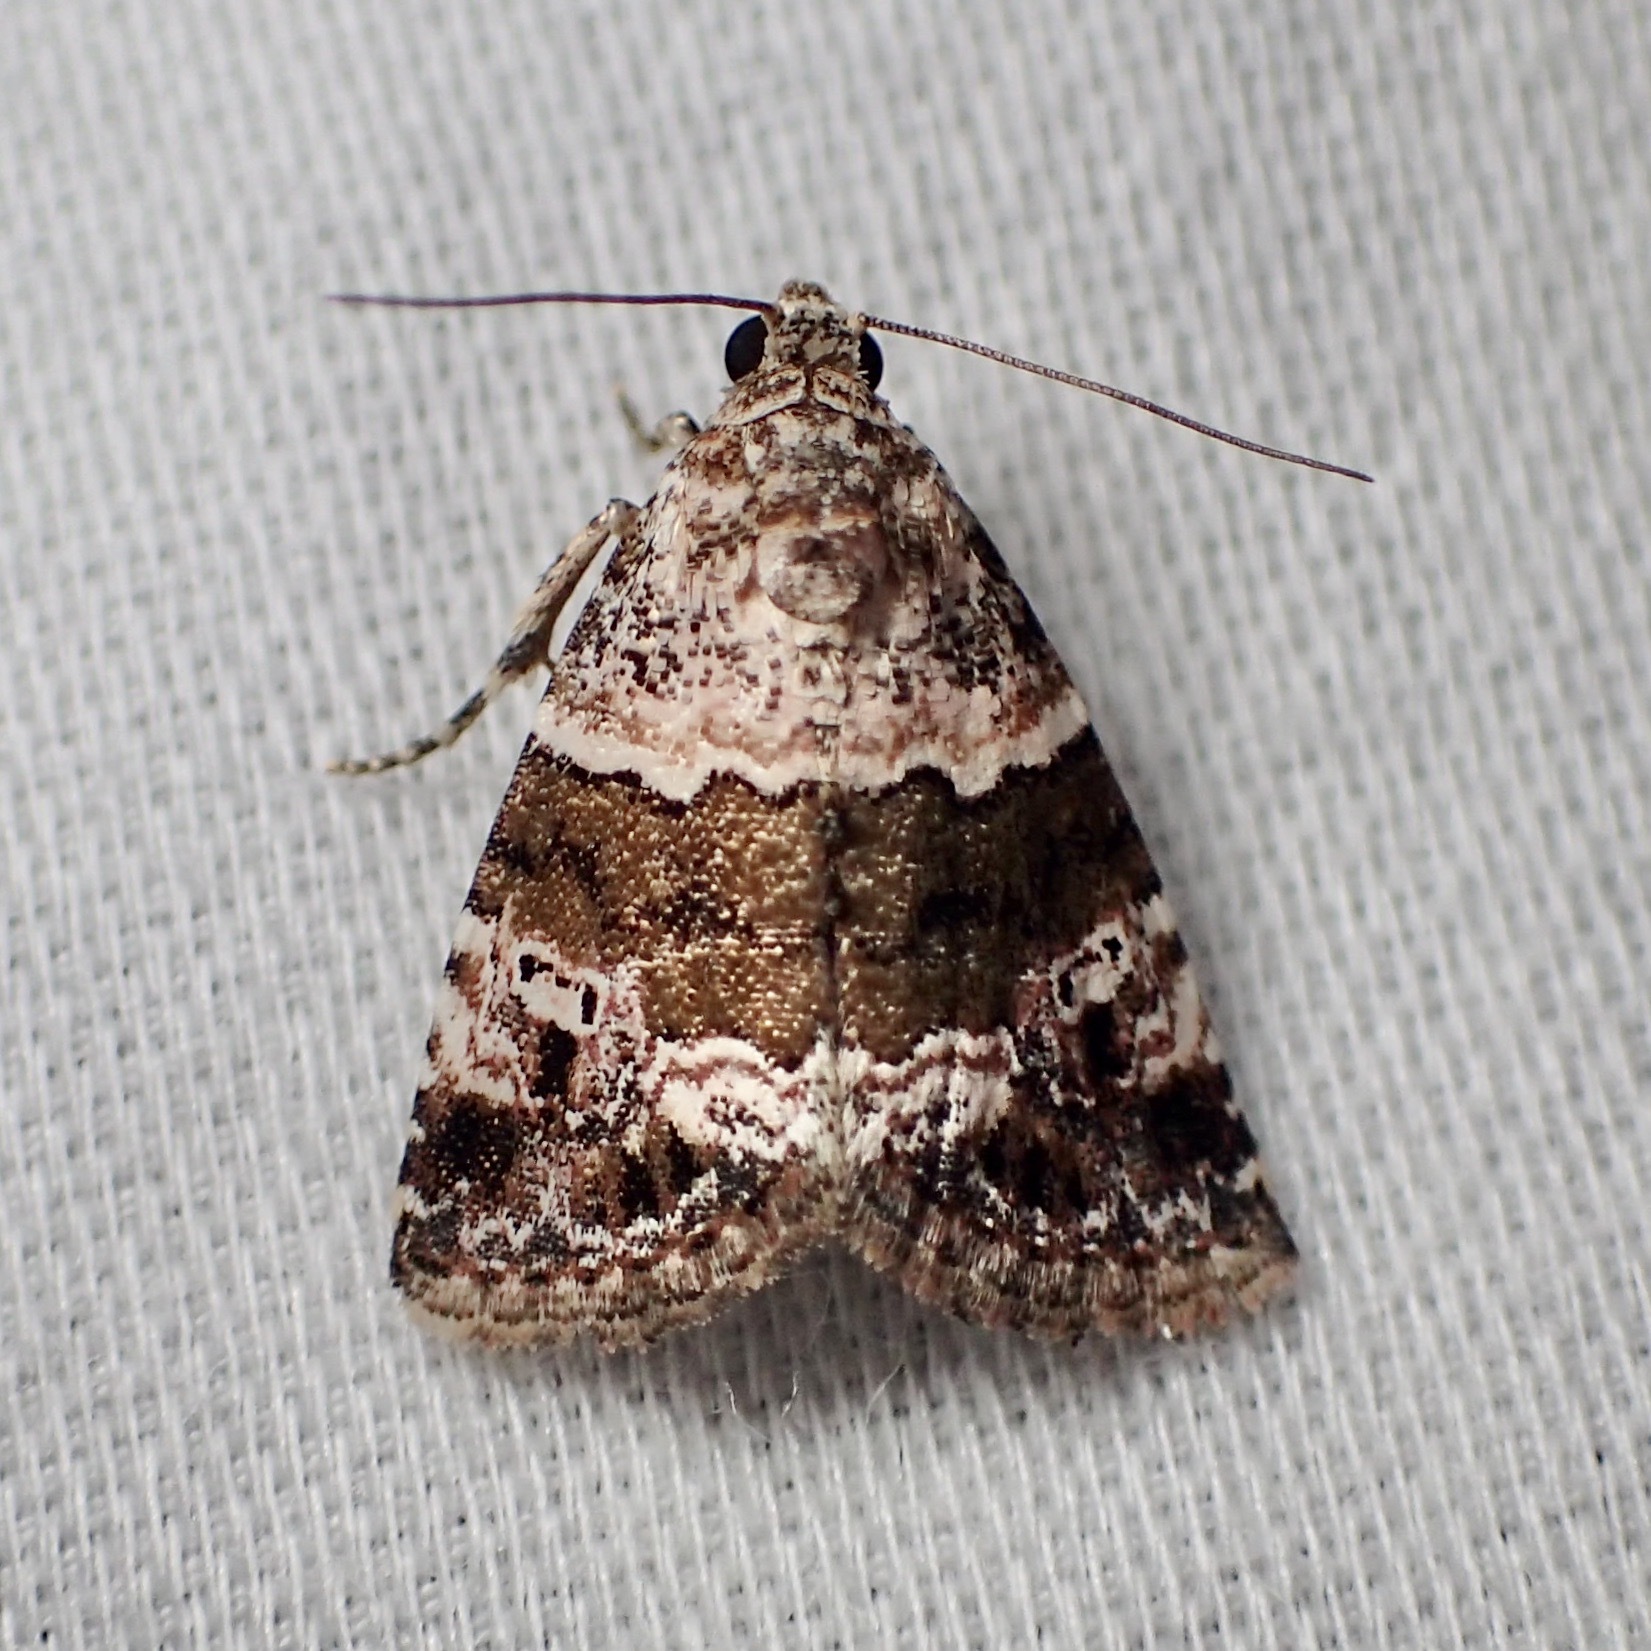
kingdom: Animalia
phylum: Arthropoda
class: Insecta
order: Lepidoptera
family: Noctuidae
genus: Maliattha
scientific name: Maliattha signifera
